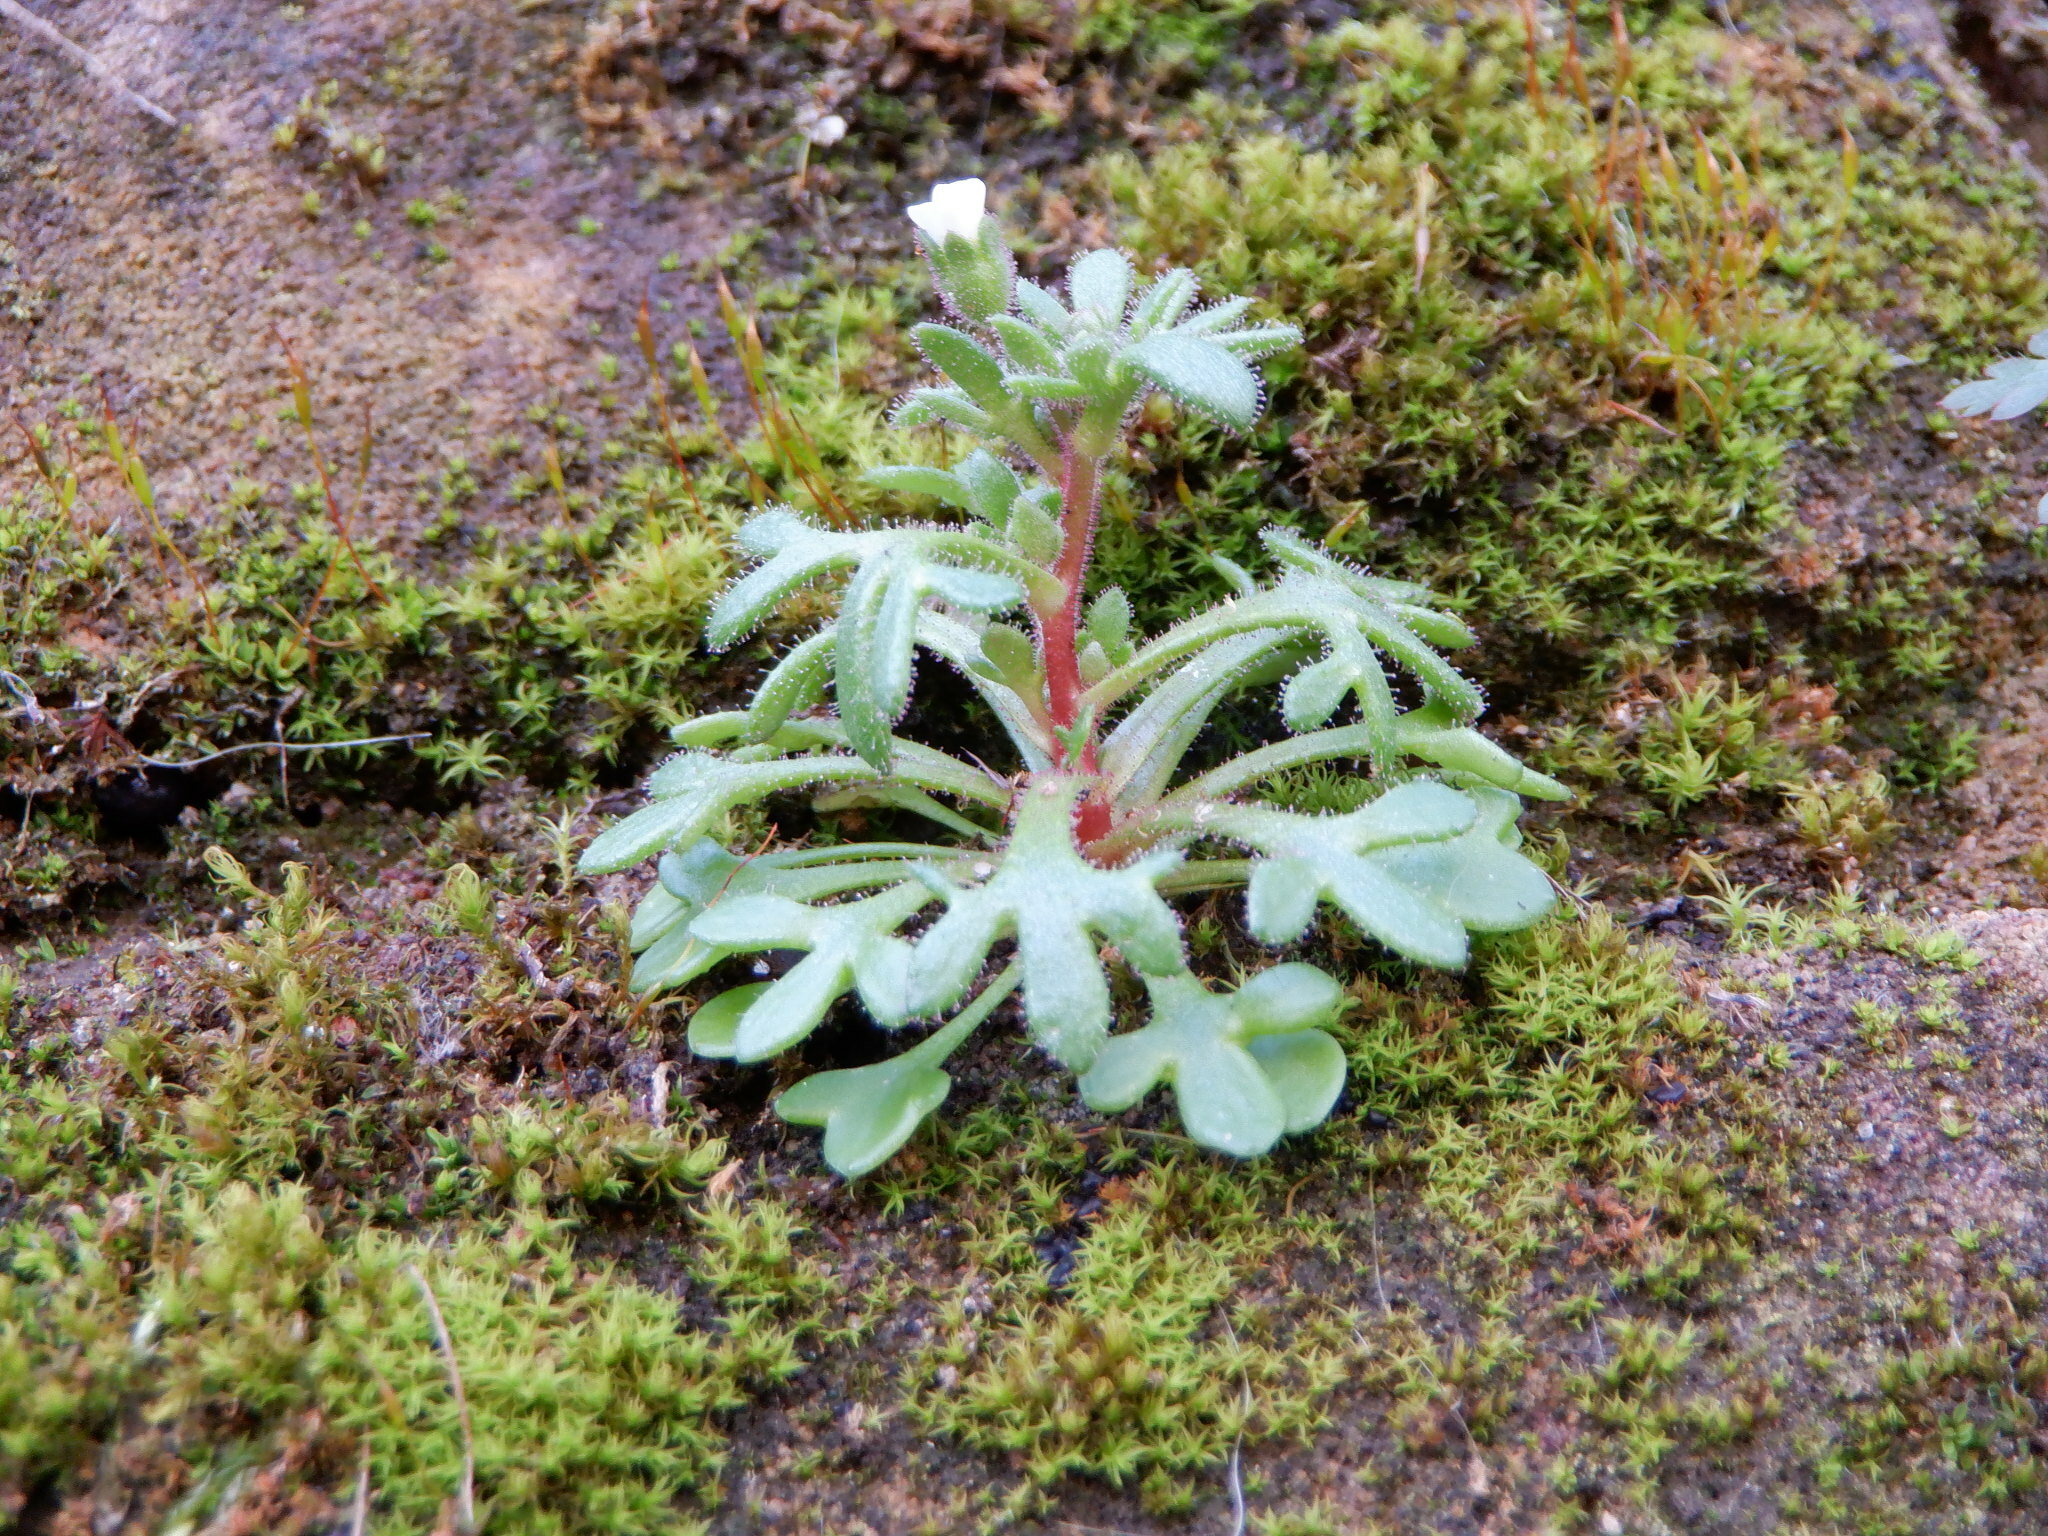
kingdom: Plantae
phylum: Tracheophyta
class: Magnoliopsida
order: Saxifragales
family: Saxifragaceae
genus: Saxifraga
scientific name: Saxifraga tridactylites
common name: Rue-leaved saxifrage
